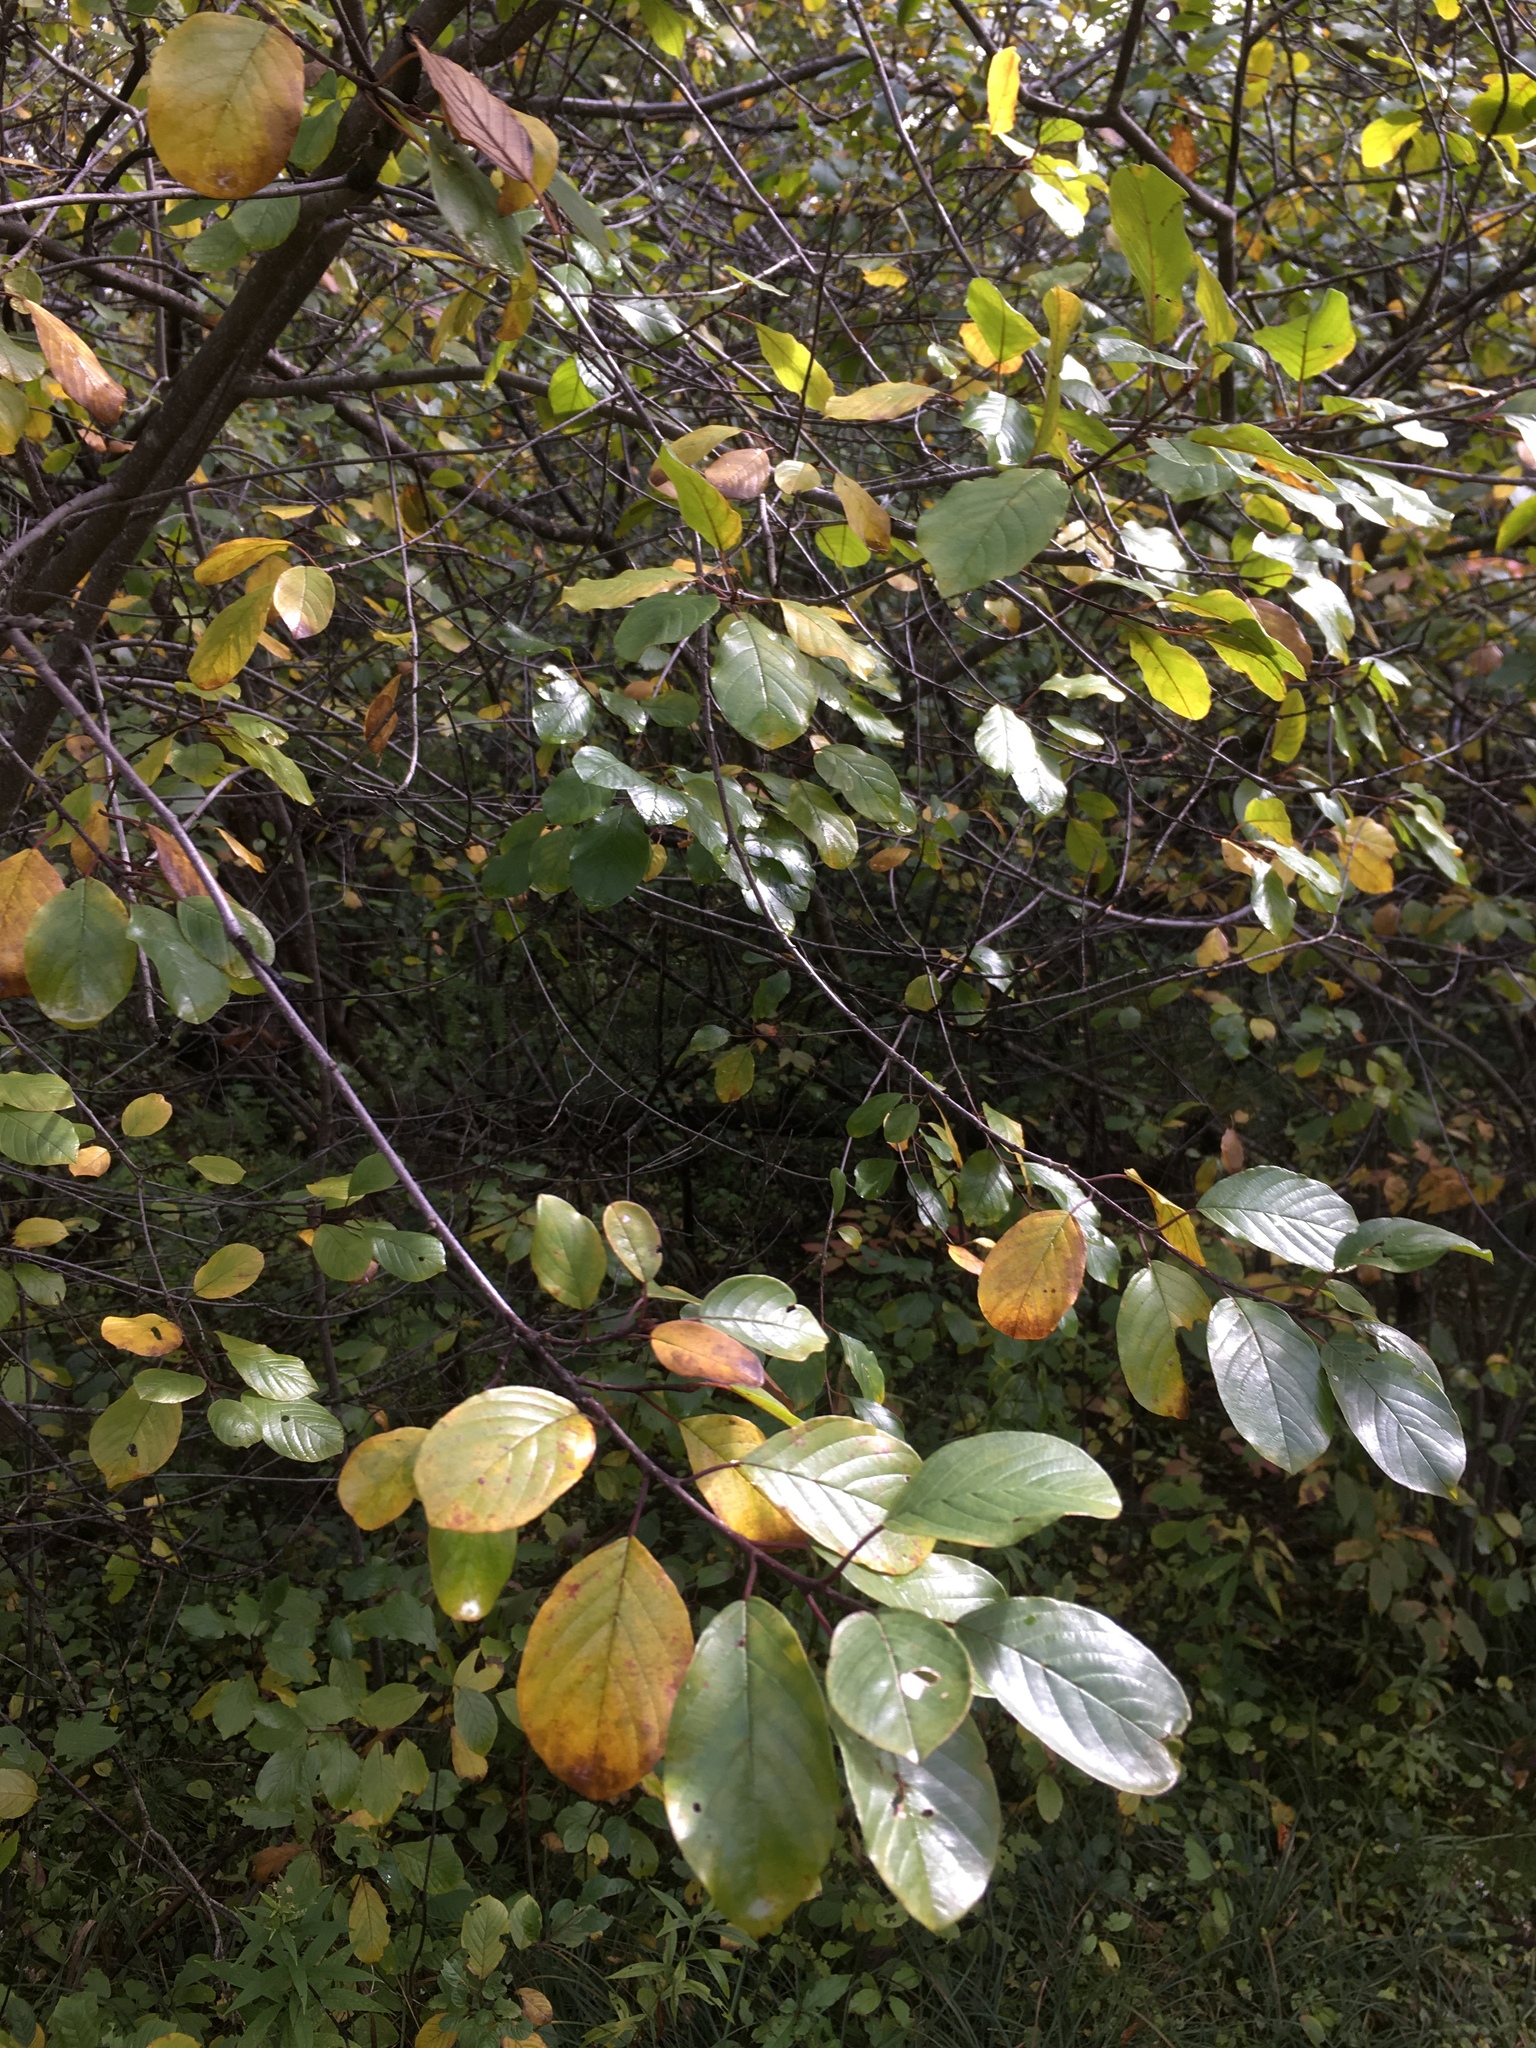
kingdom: Plantae
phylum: Tracheophyta
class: Magnoliopsida
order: Rosales
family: Rhamnaceae
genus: Frangula
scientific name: Frangula alnus
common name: Alder buckthorn
